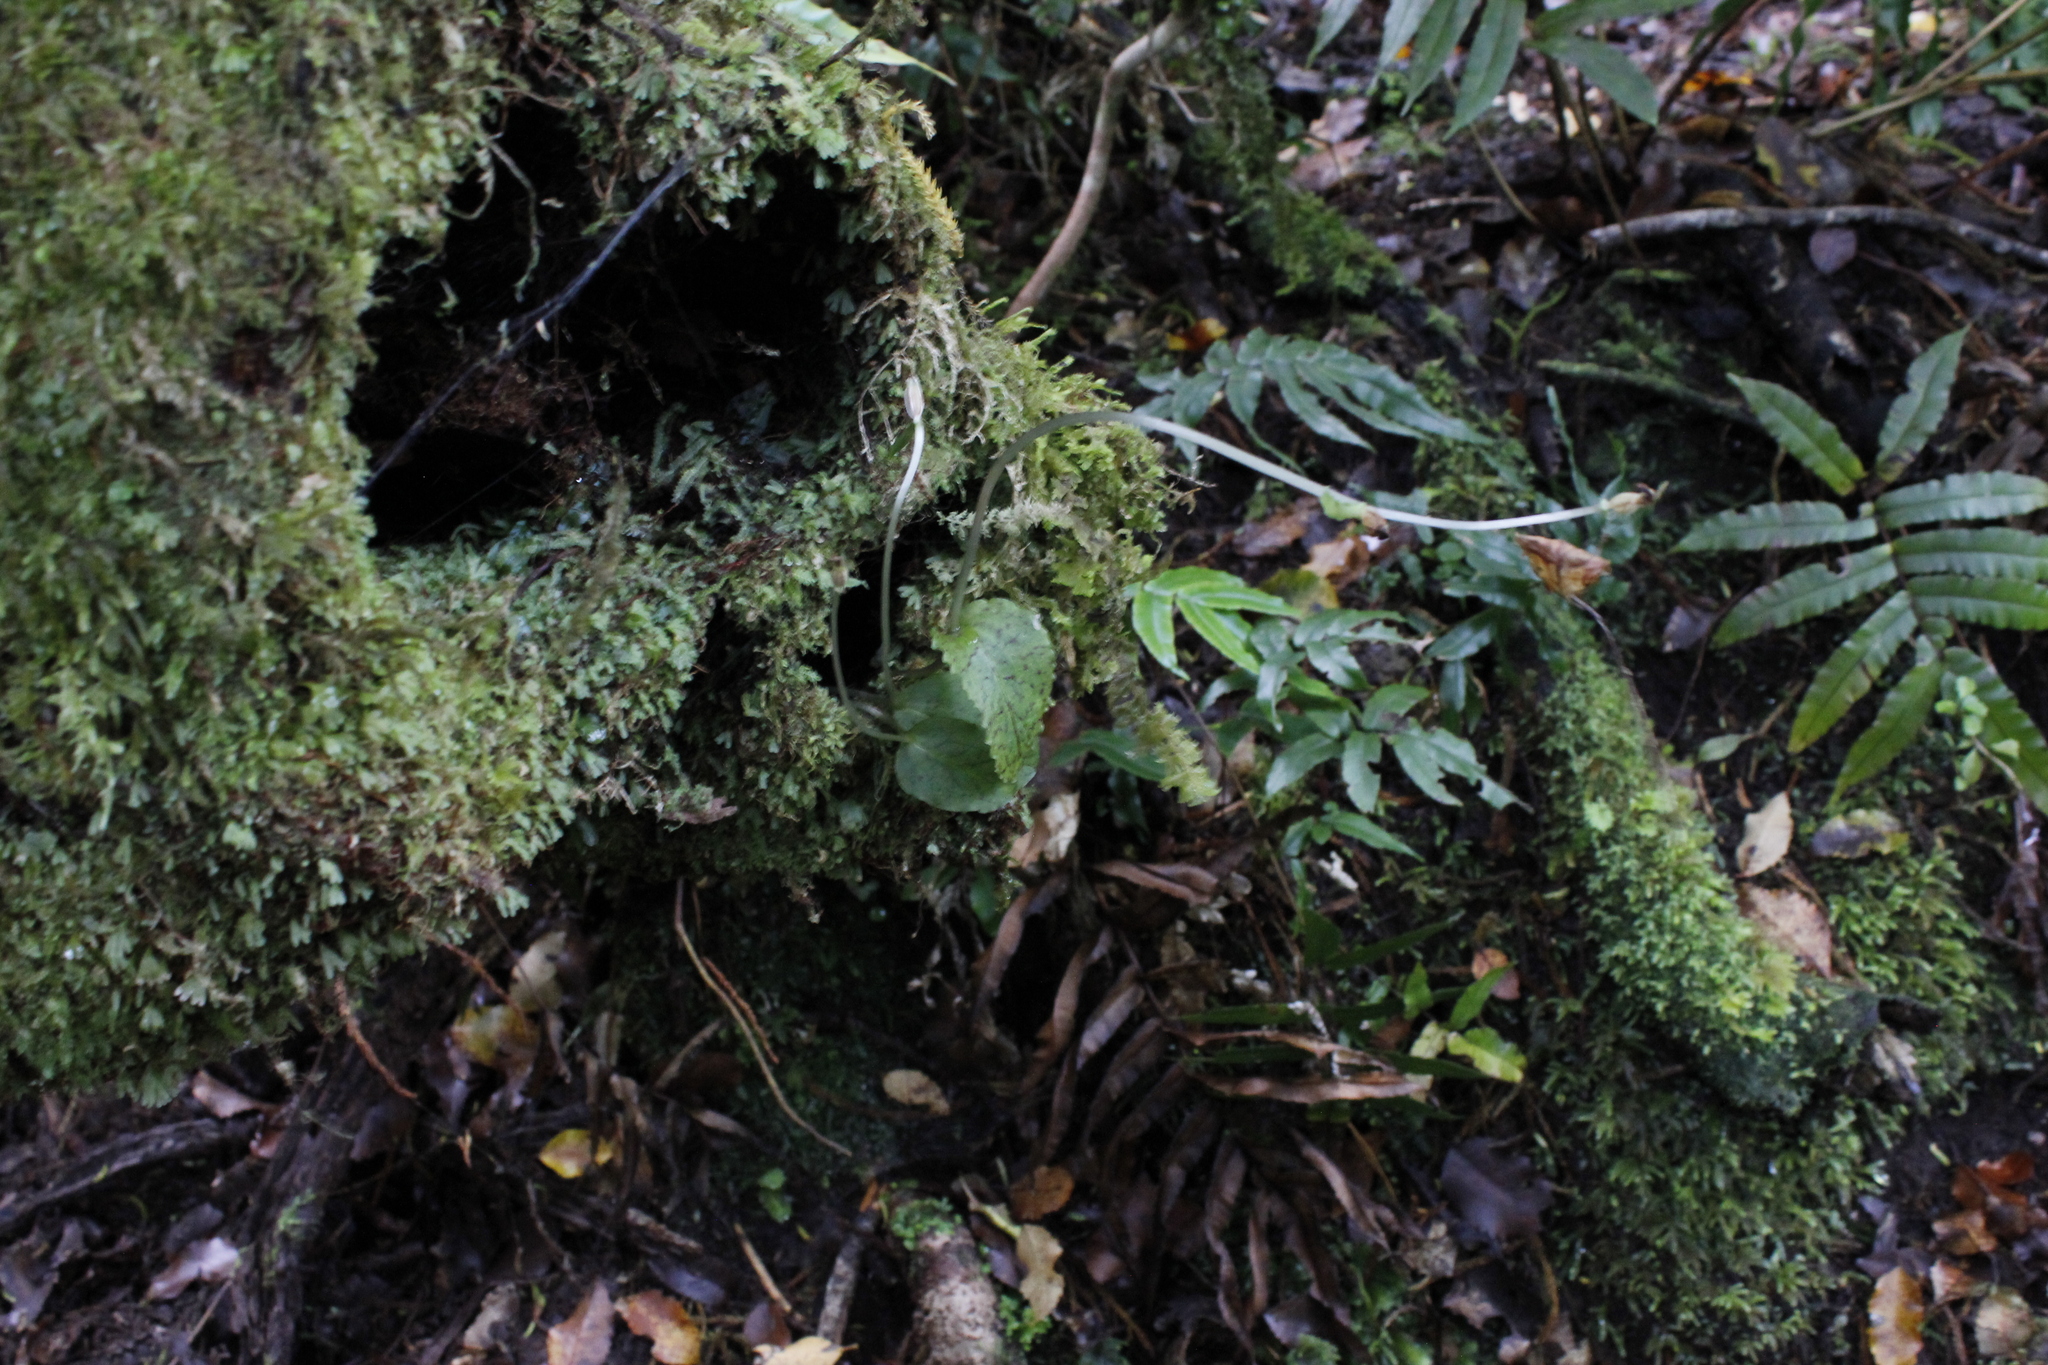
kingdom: Plantae
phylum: Tracheophyta
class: Liliopsida
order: Asparagales
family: Orchidaceae
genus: Corybas
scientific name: Corybas oblongus
